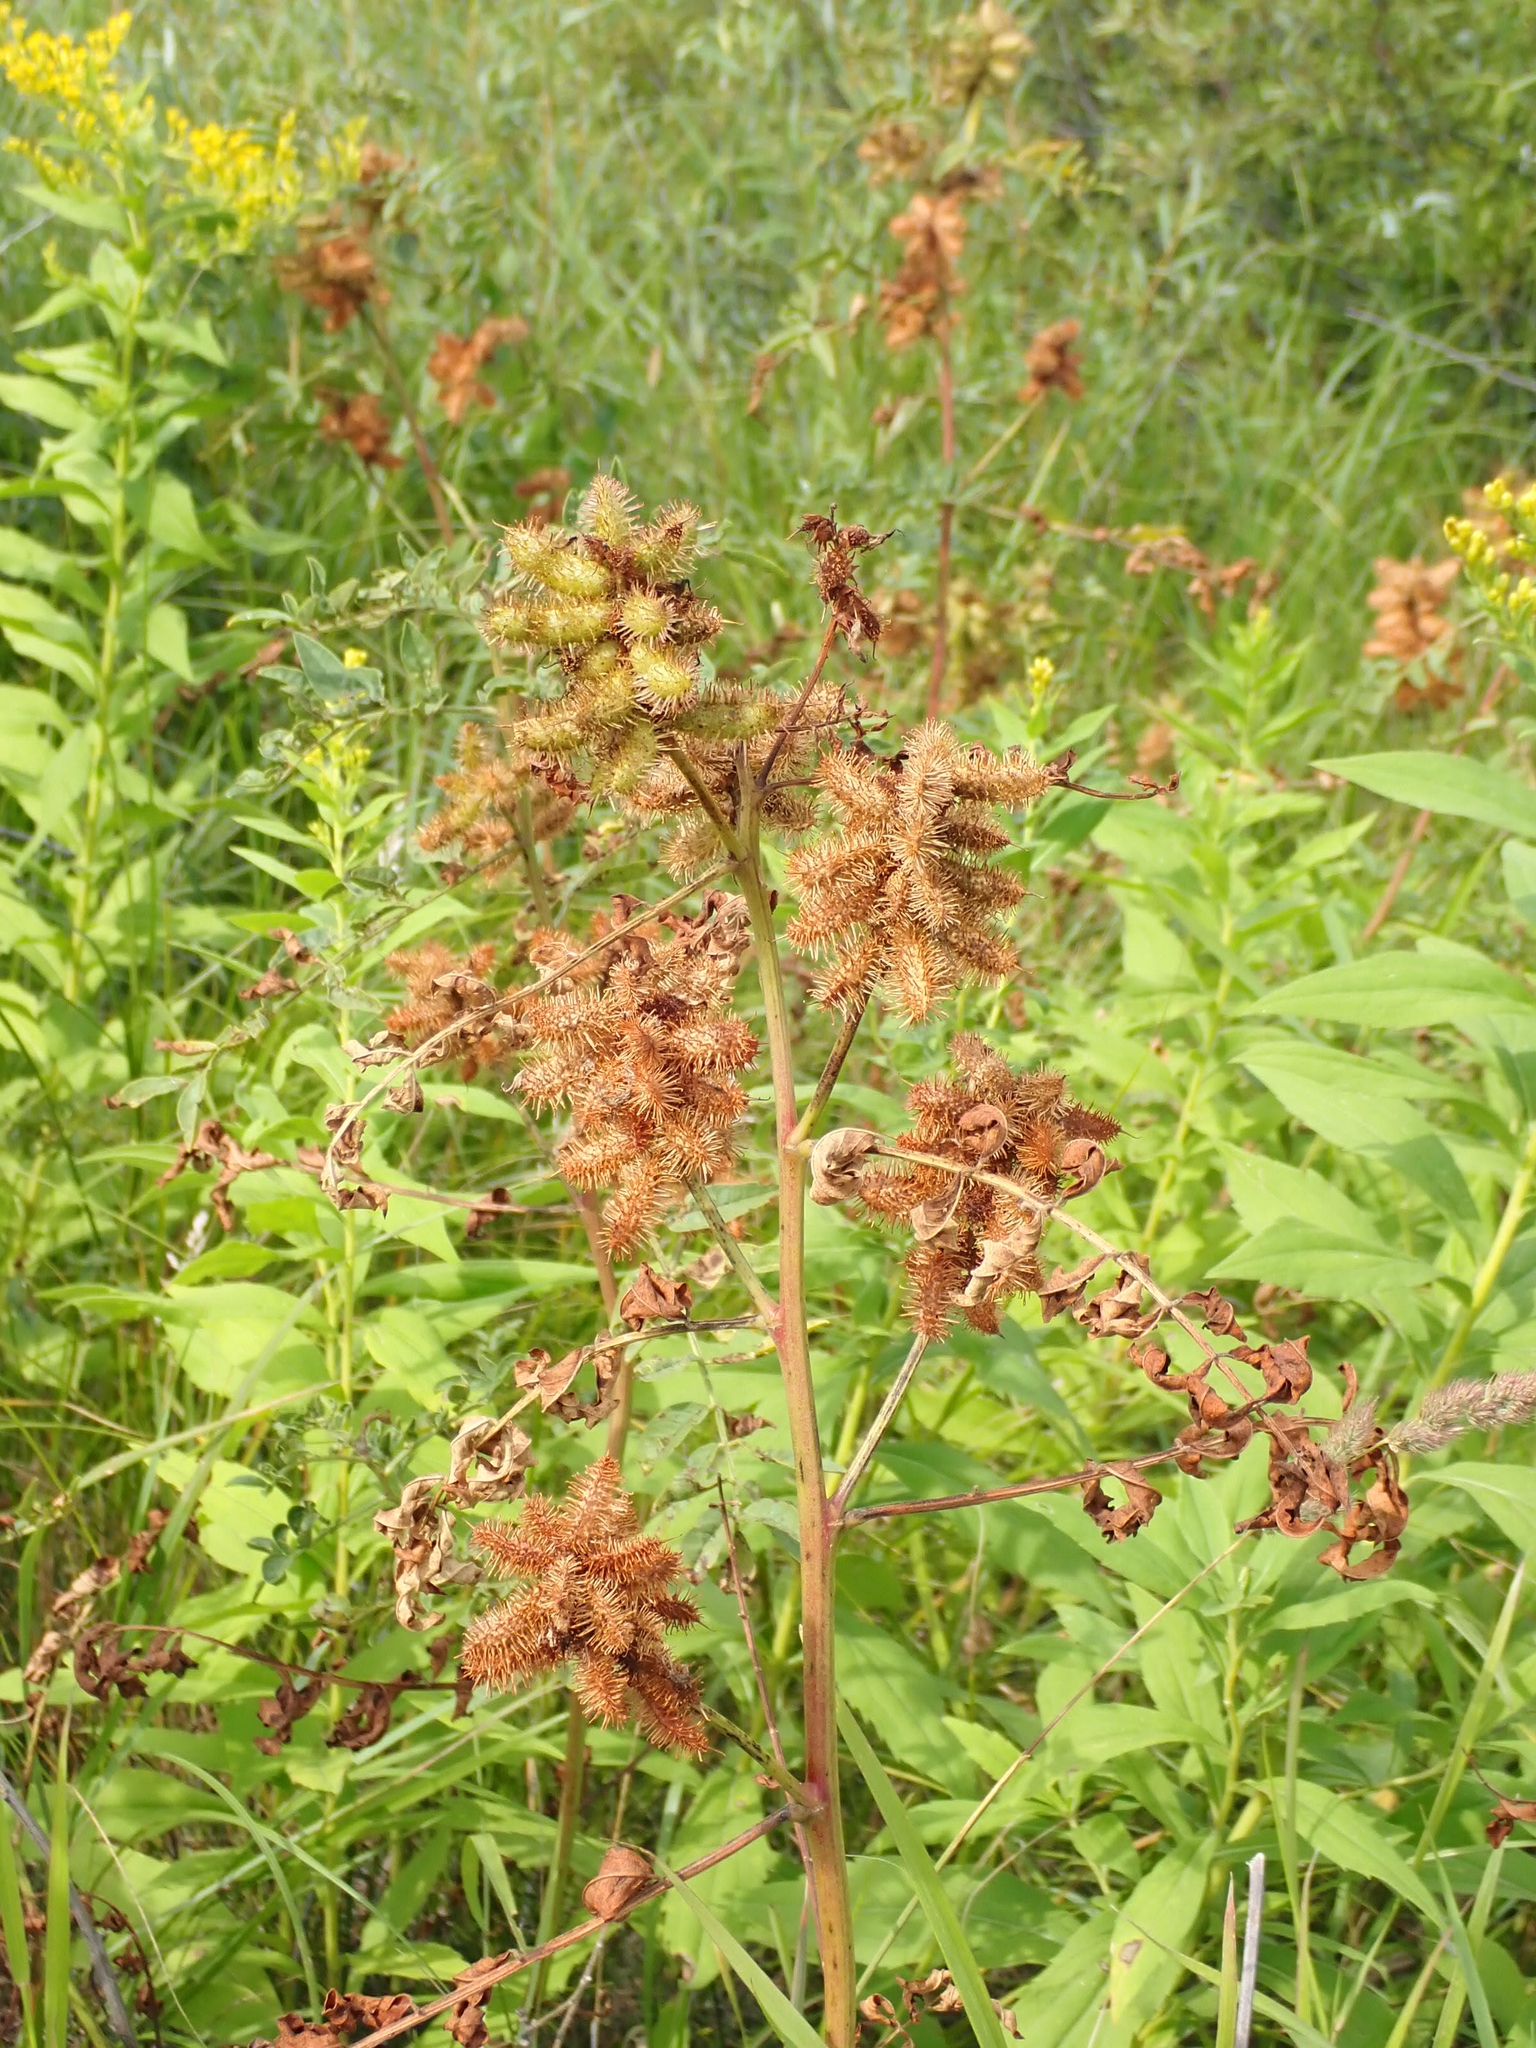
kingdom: Plantae
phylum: Tracheophyta
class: Magnoliopsida
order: Fabales
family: Fabaceae
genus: Glycyrrhiza
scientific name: Glycyrrhiza lepidota
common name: American liquorice
